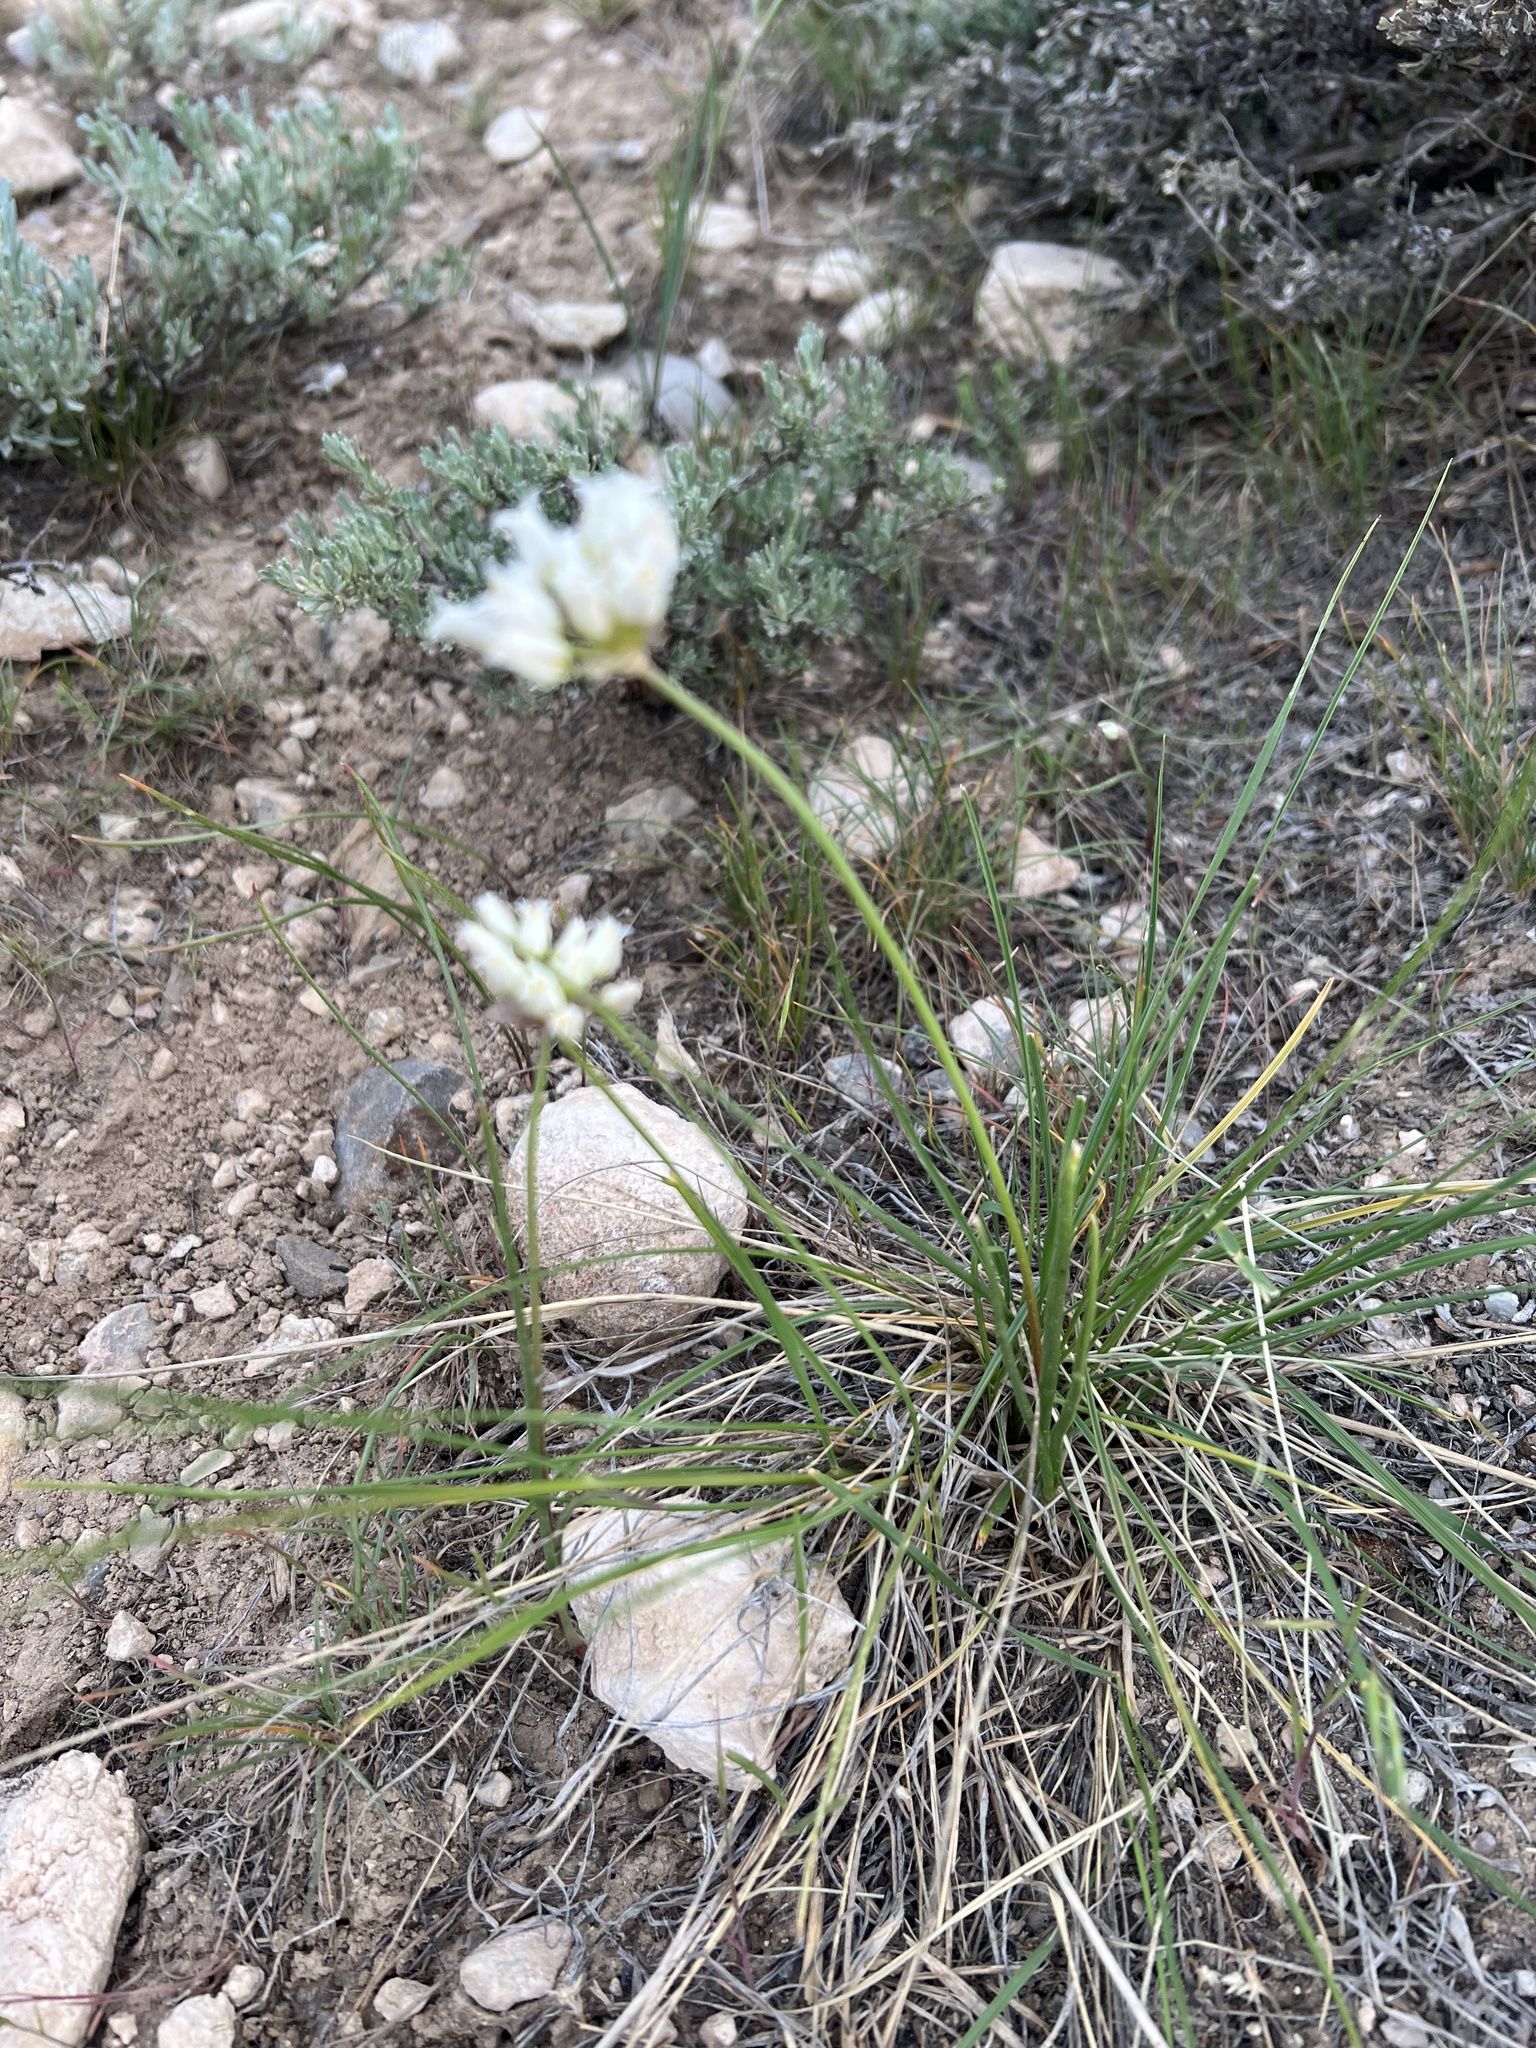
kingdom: Plantae
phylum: Tracheophyta
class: Liliopsida
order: Asparagales
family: Amaryllidaceae
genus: Allium
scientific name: Allium textile
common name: Prairie onion
